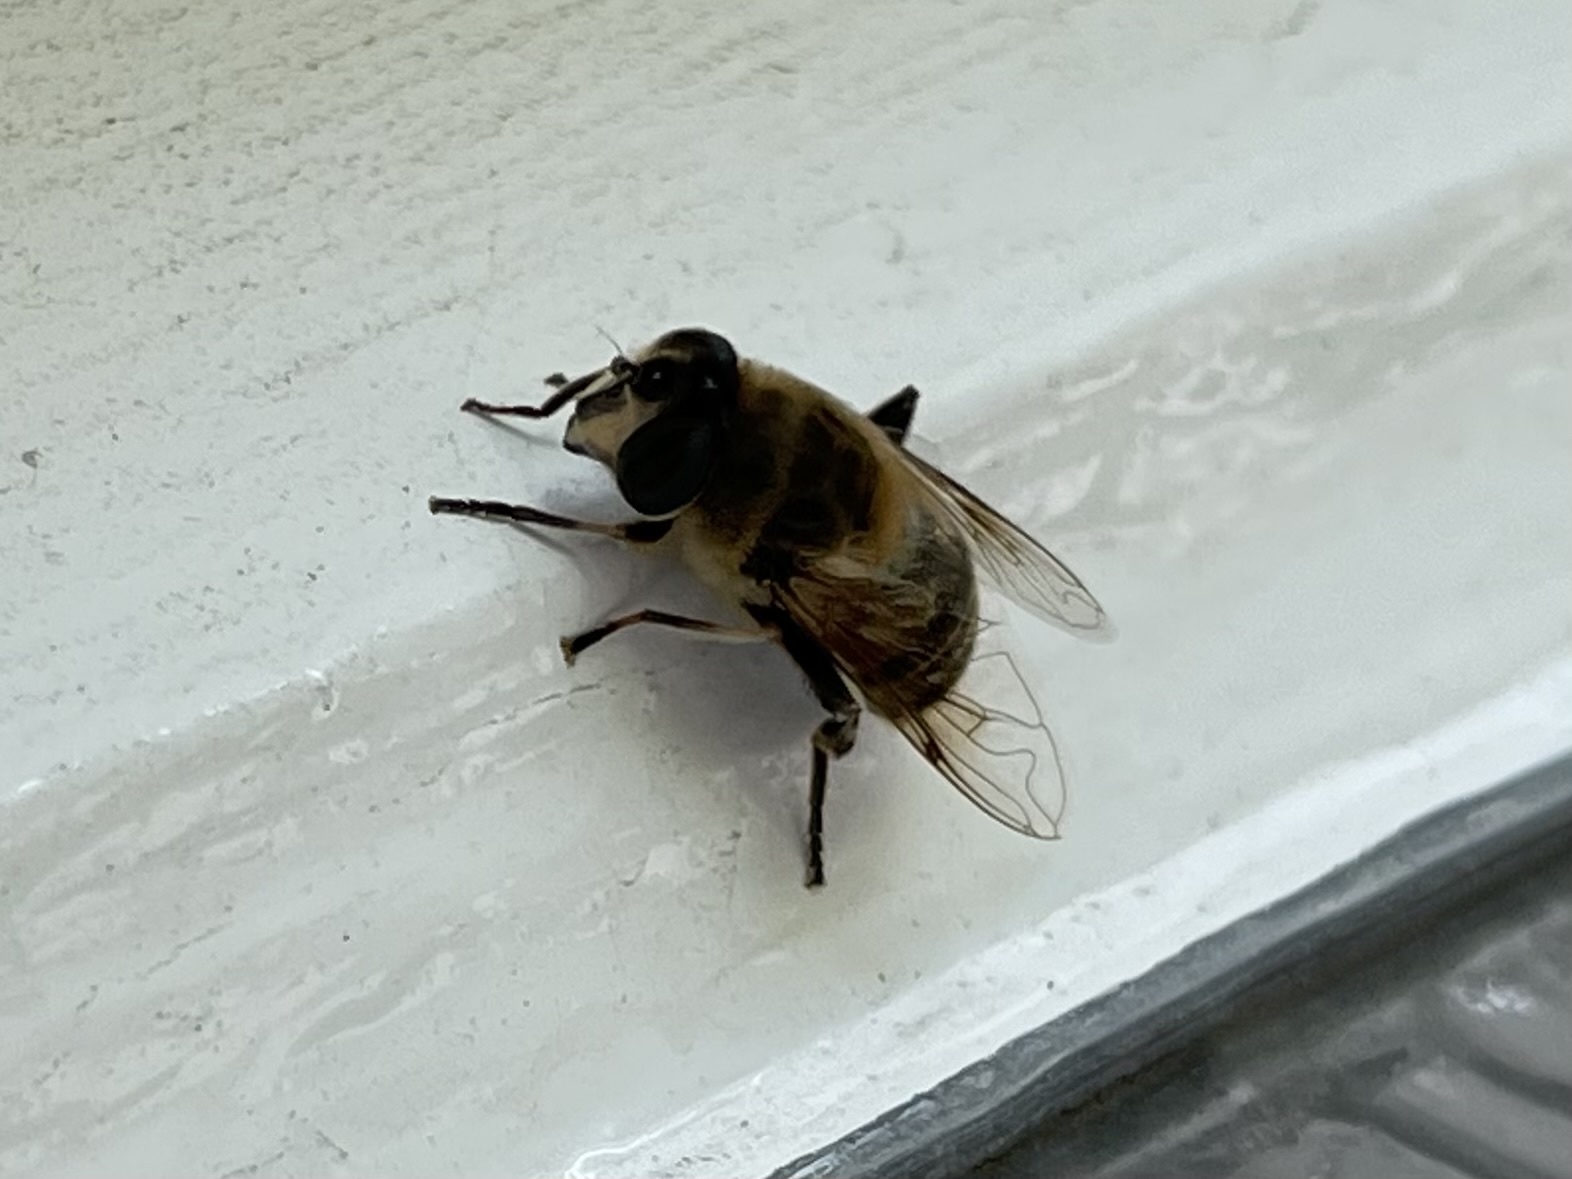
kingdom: Animalia
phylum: Arthropoda
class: Insecta
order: Diptera
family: Syrphidae
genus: Eristalis
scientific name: Eristalis tenax
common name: Drone fly
